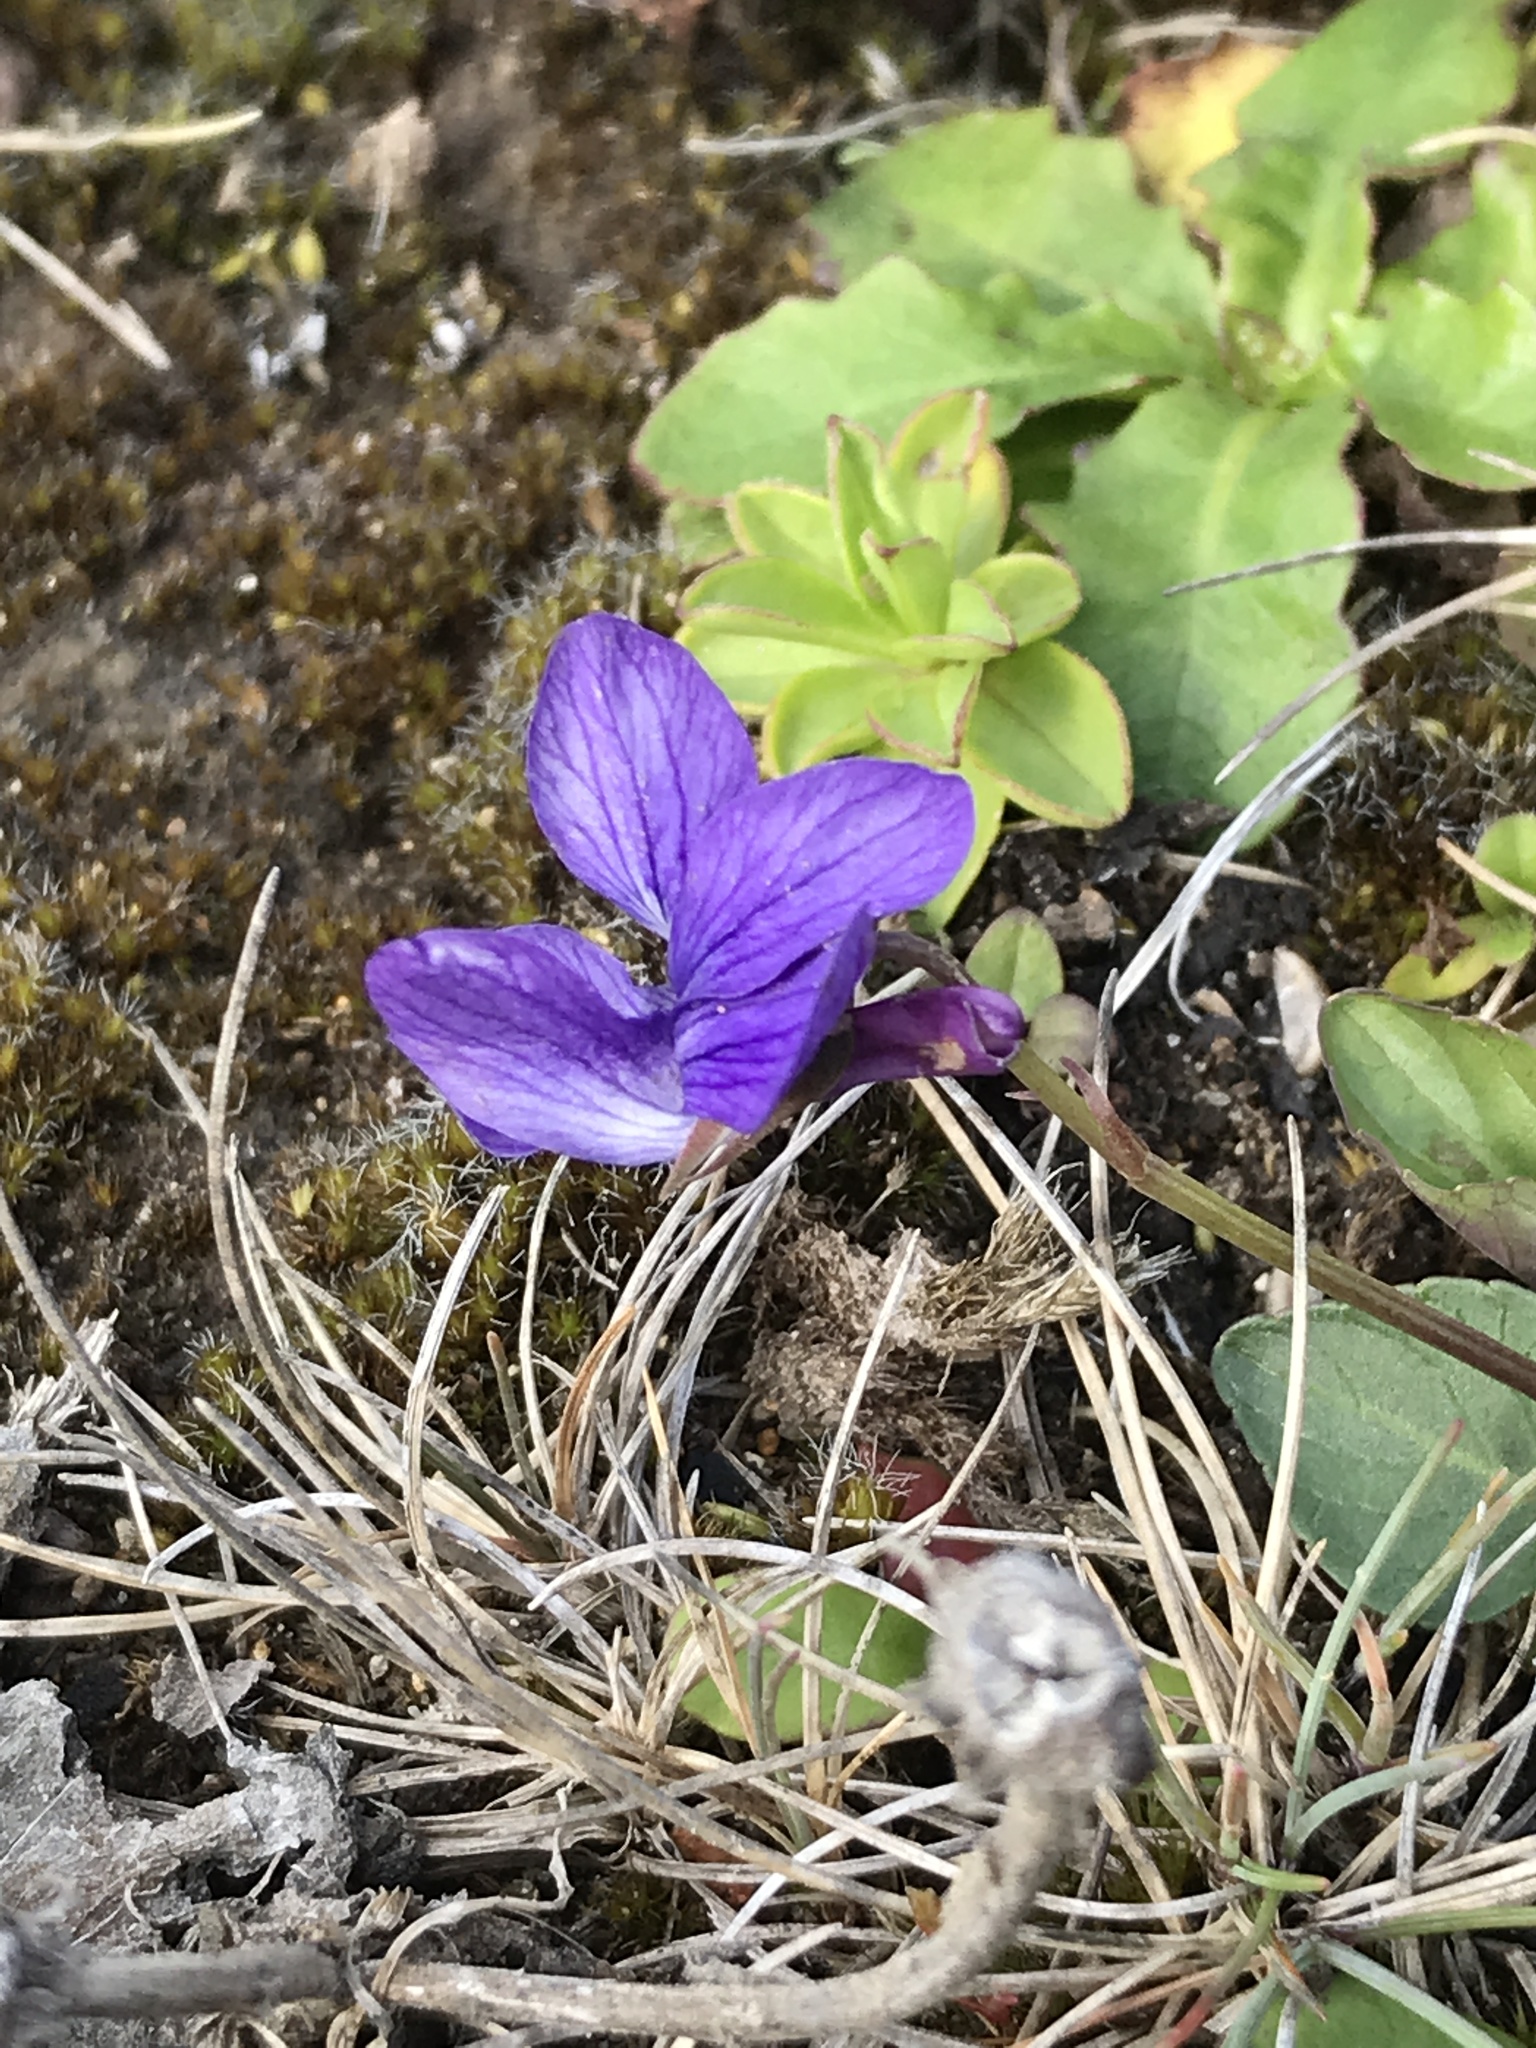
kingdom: Plantae
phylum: Tracheophyta
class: Magnoliopsida
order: Malpighiales
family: Violaceae
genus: Viola
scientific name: Viola adunca
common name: Sand violet
